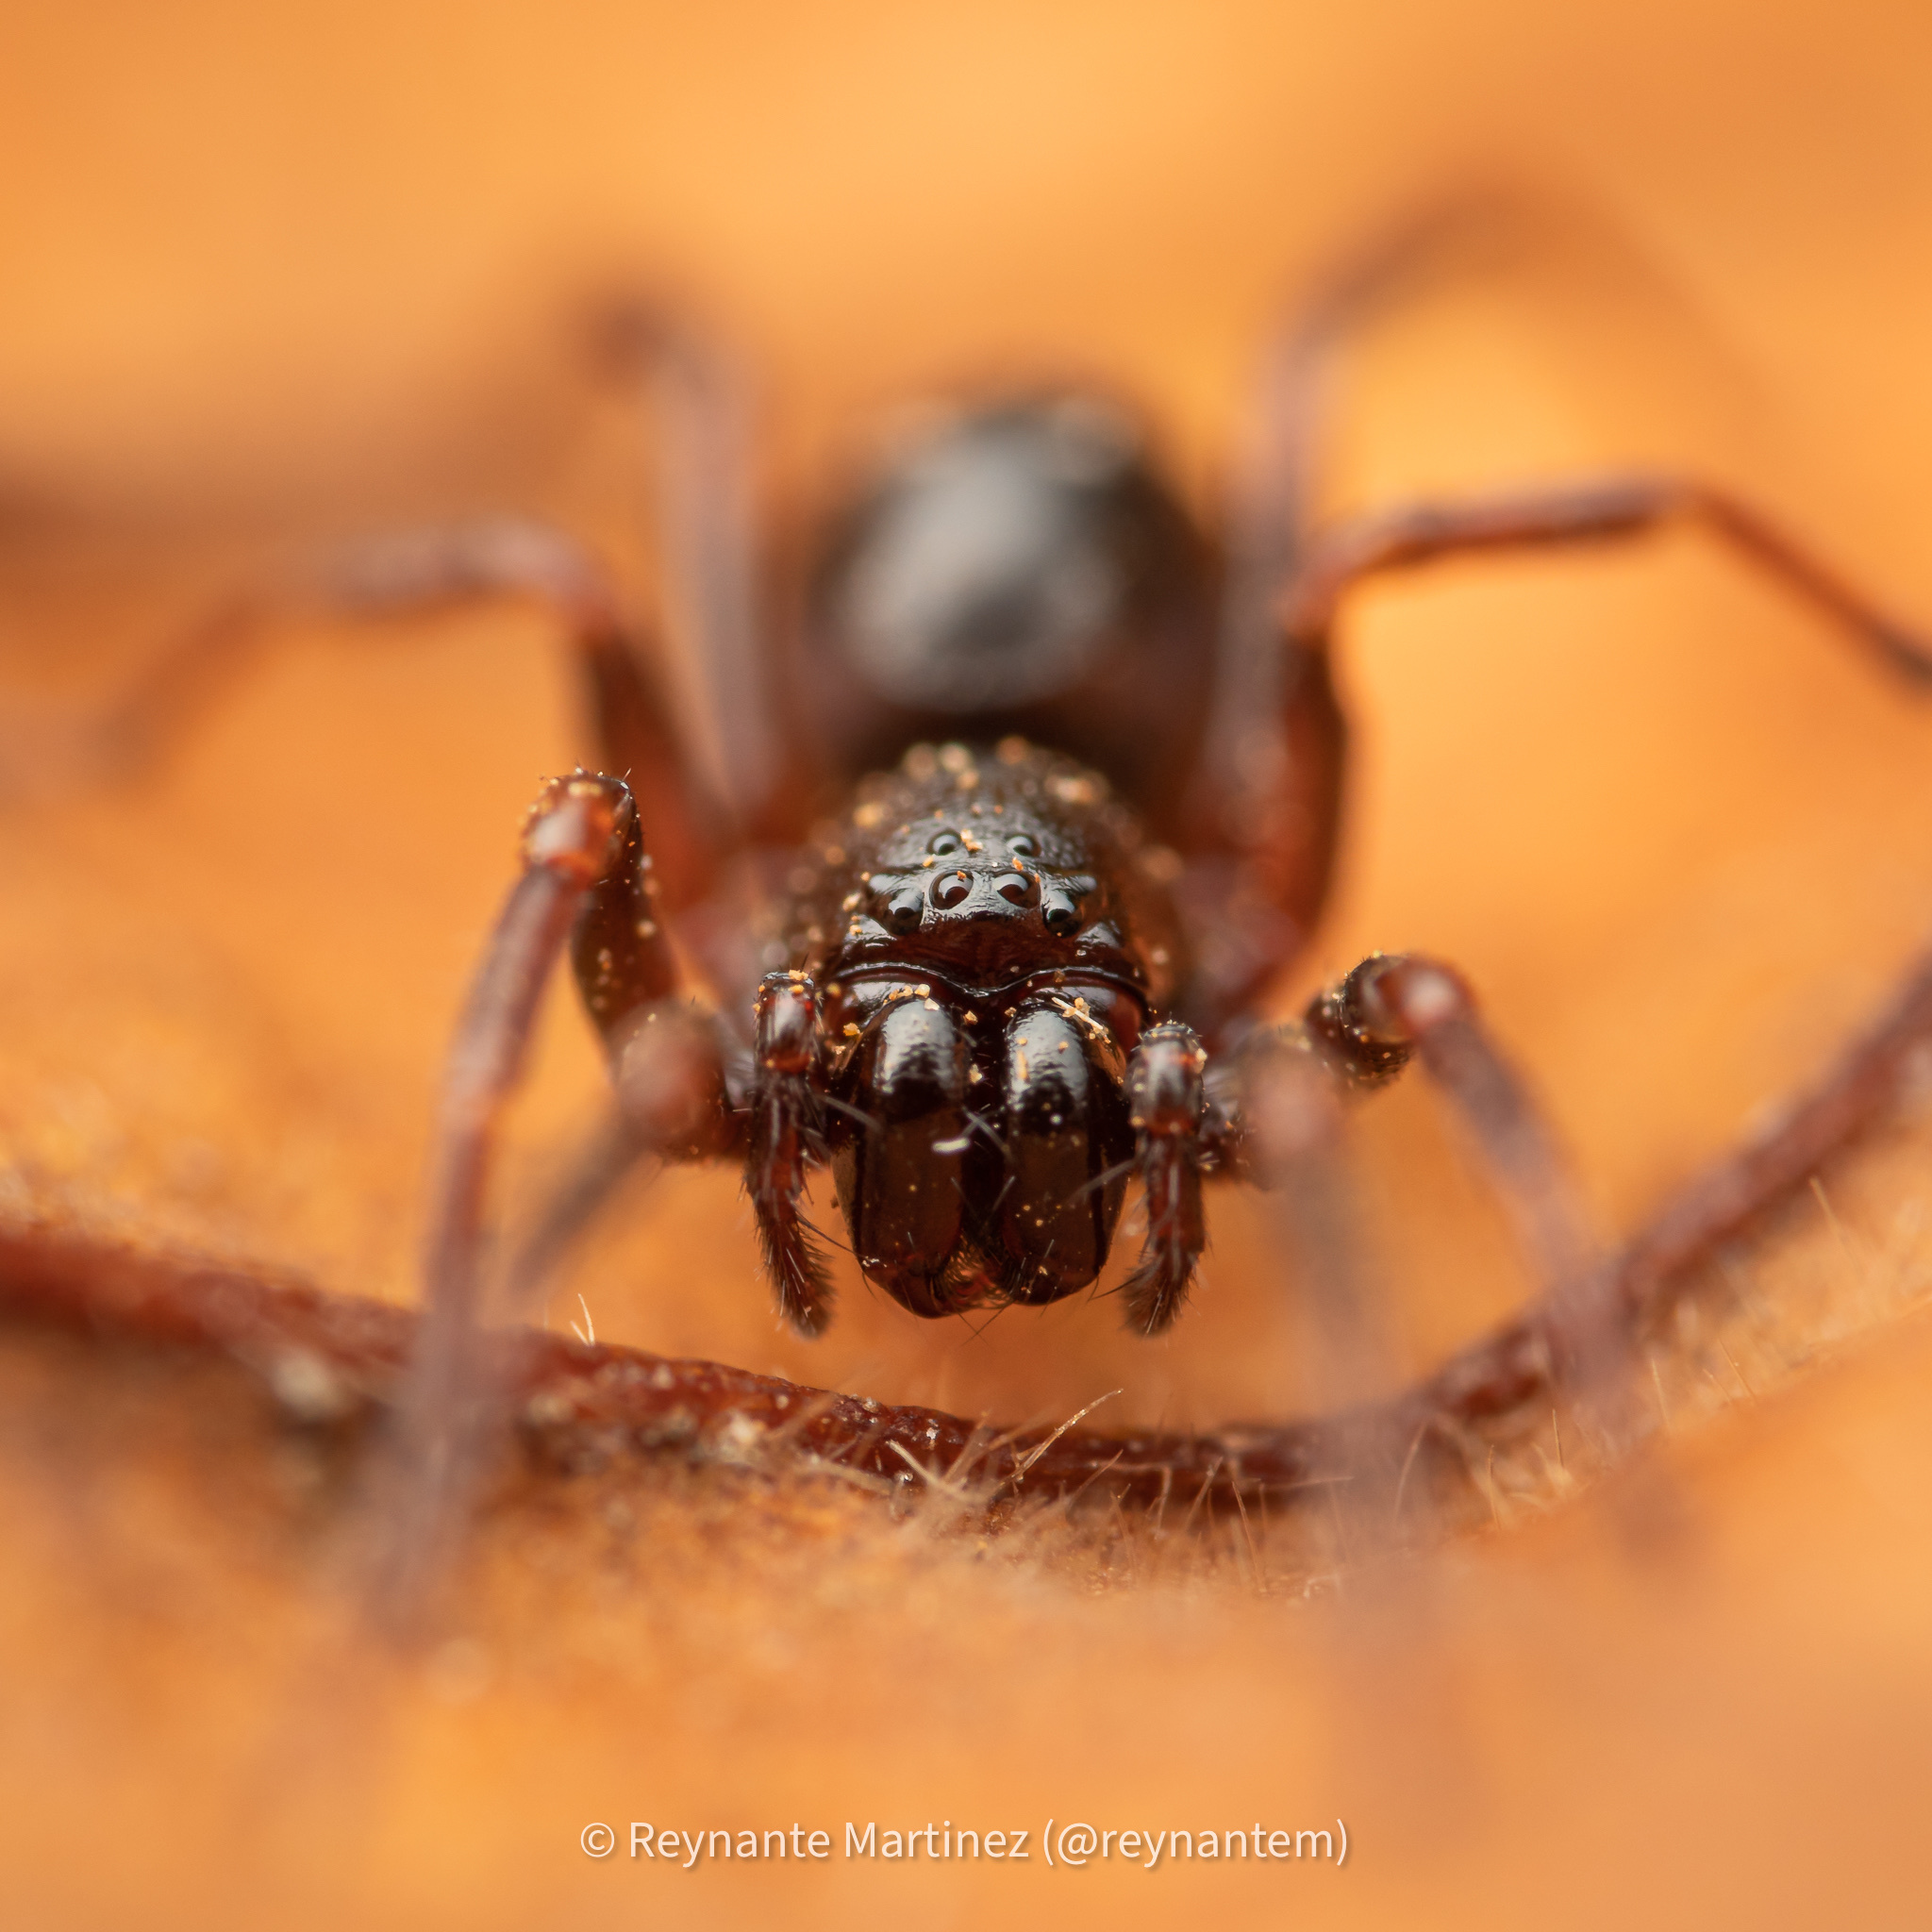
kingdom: Animalia
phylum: Arthropoda
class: Arachnida
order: Araneae
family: Liocranidae
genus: Oedignatha
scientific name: Oedignatha scrobiculata
